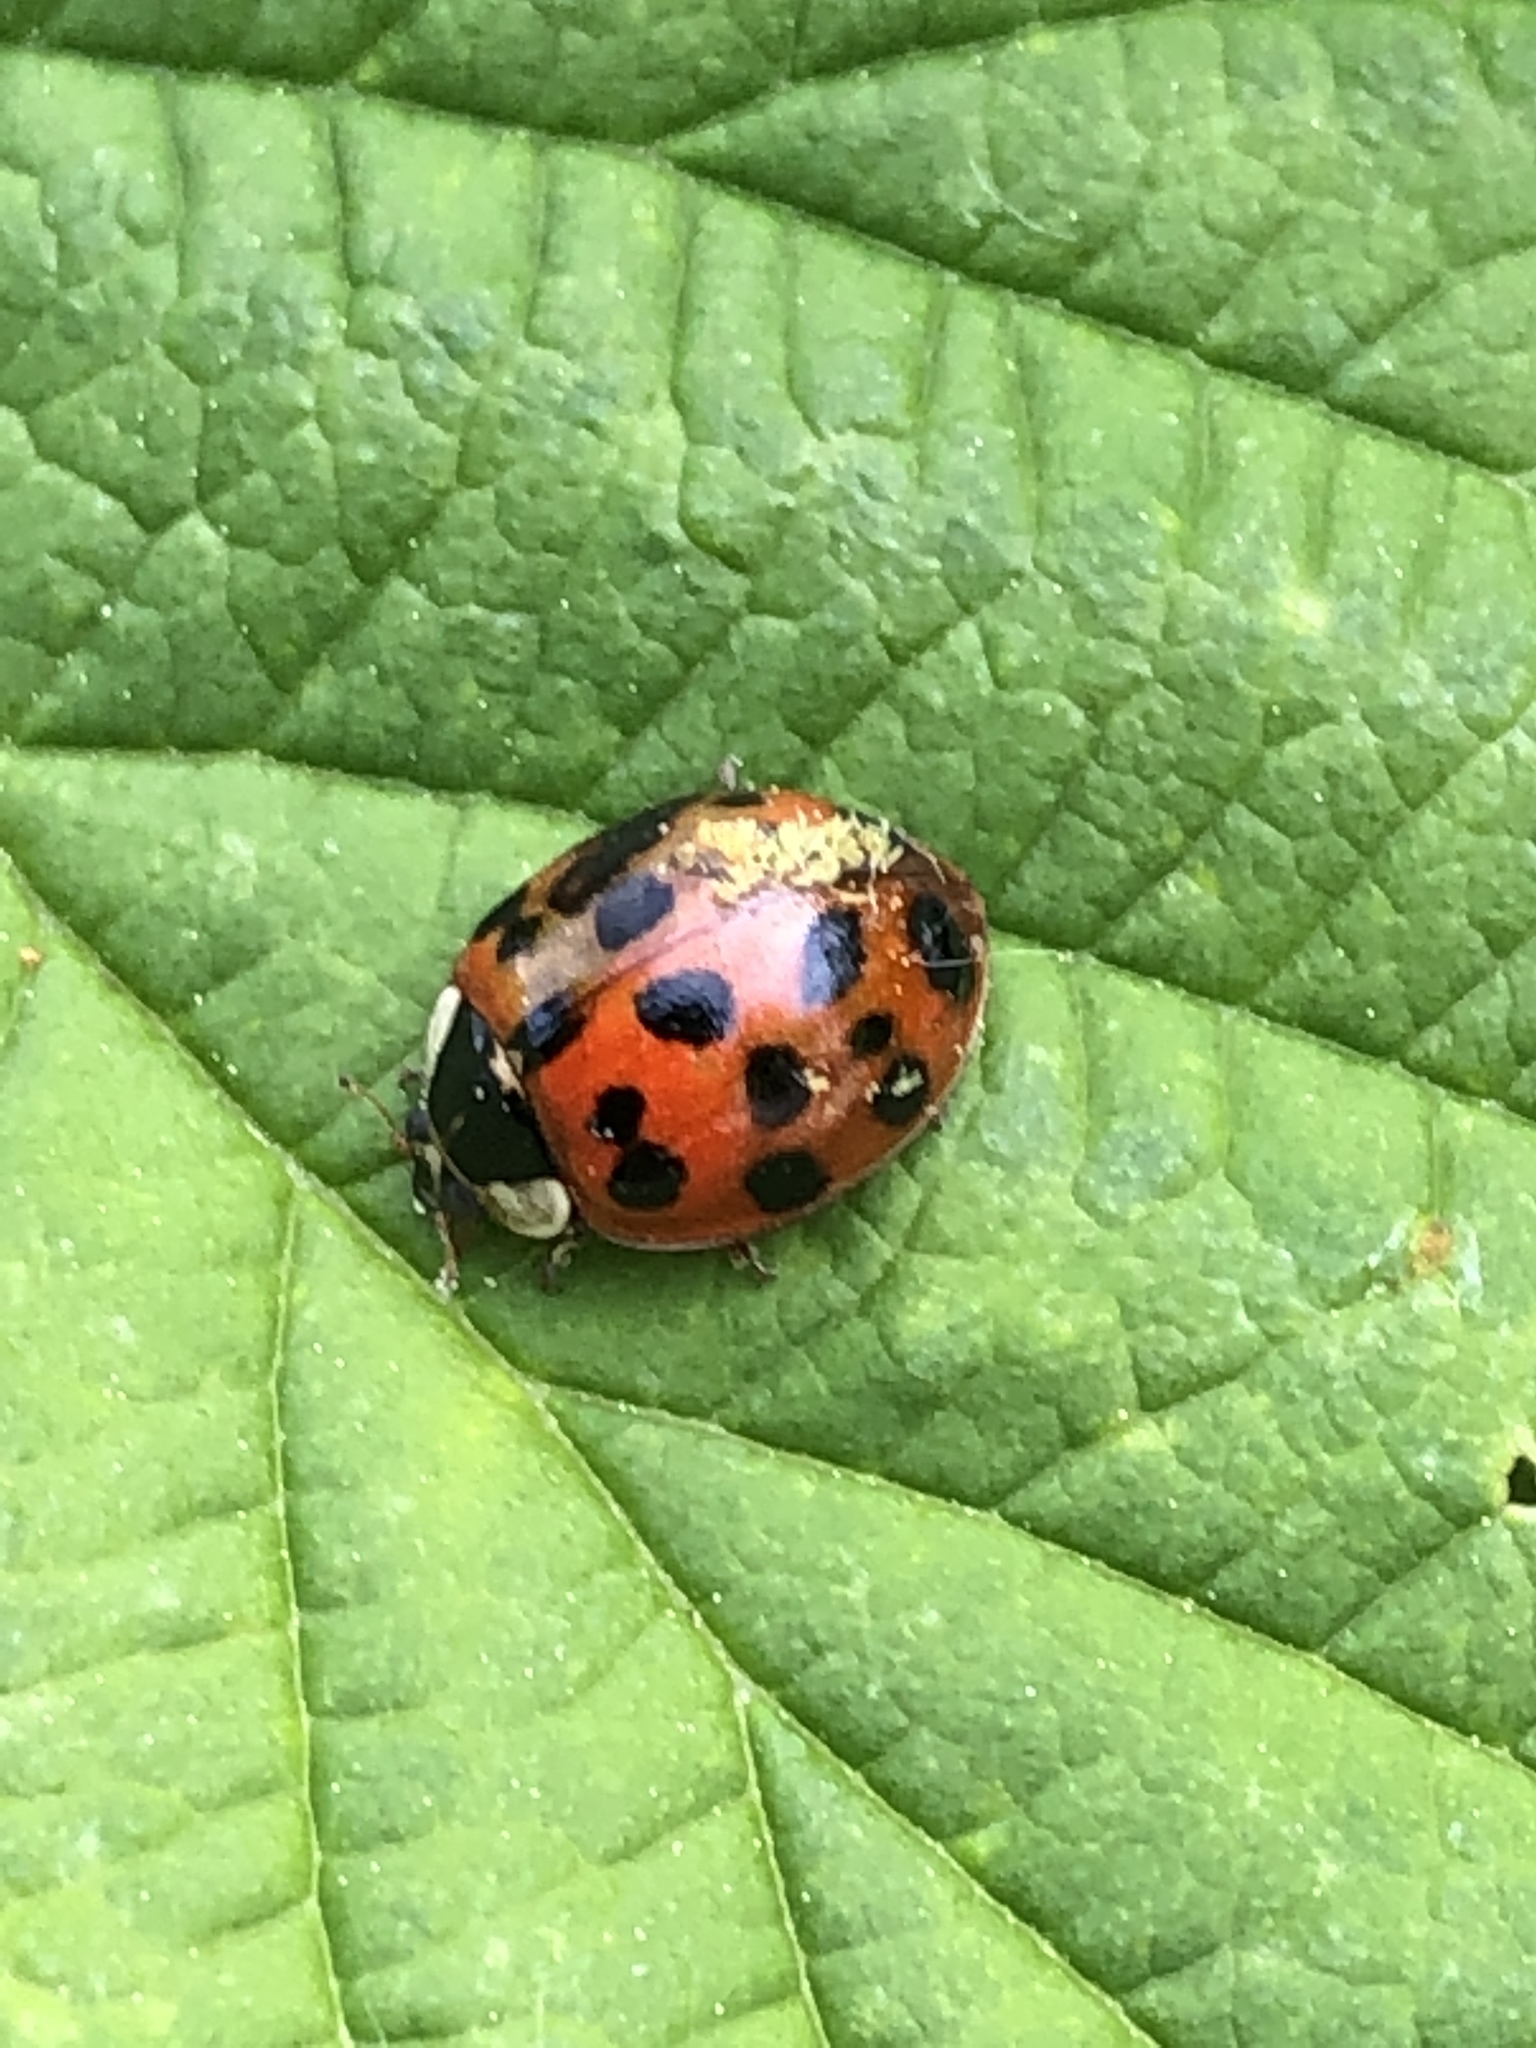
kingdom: Animalia
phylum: Arthropoda
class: Insecta
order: Coleoptera
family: Coccinellidae
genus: Harmonia
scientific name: Harmonia axyridis
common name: Harlequin ladybird
